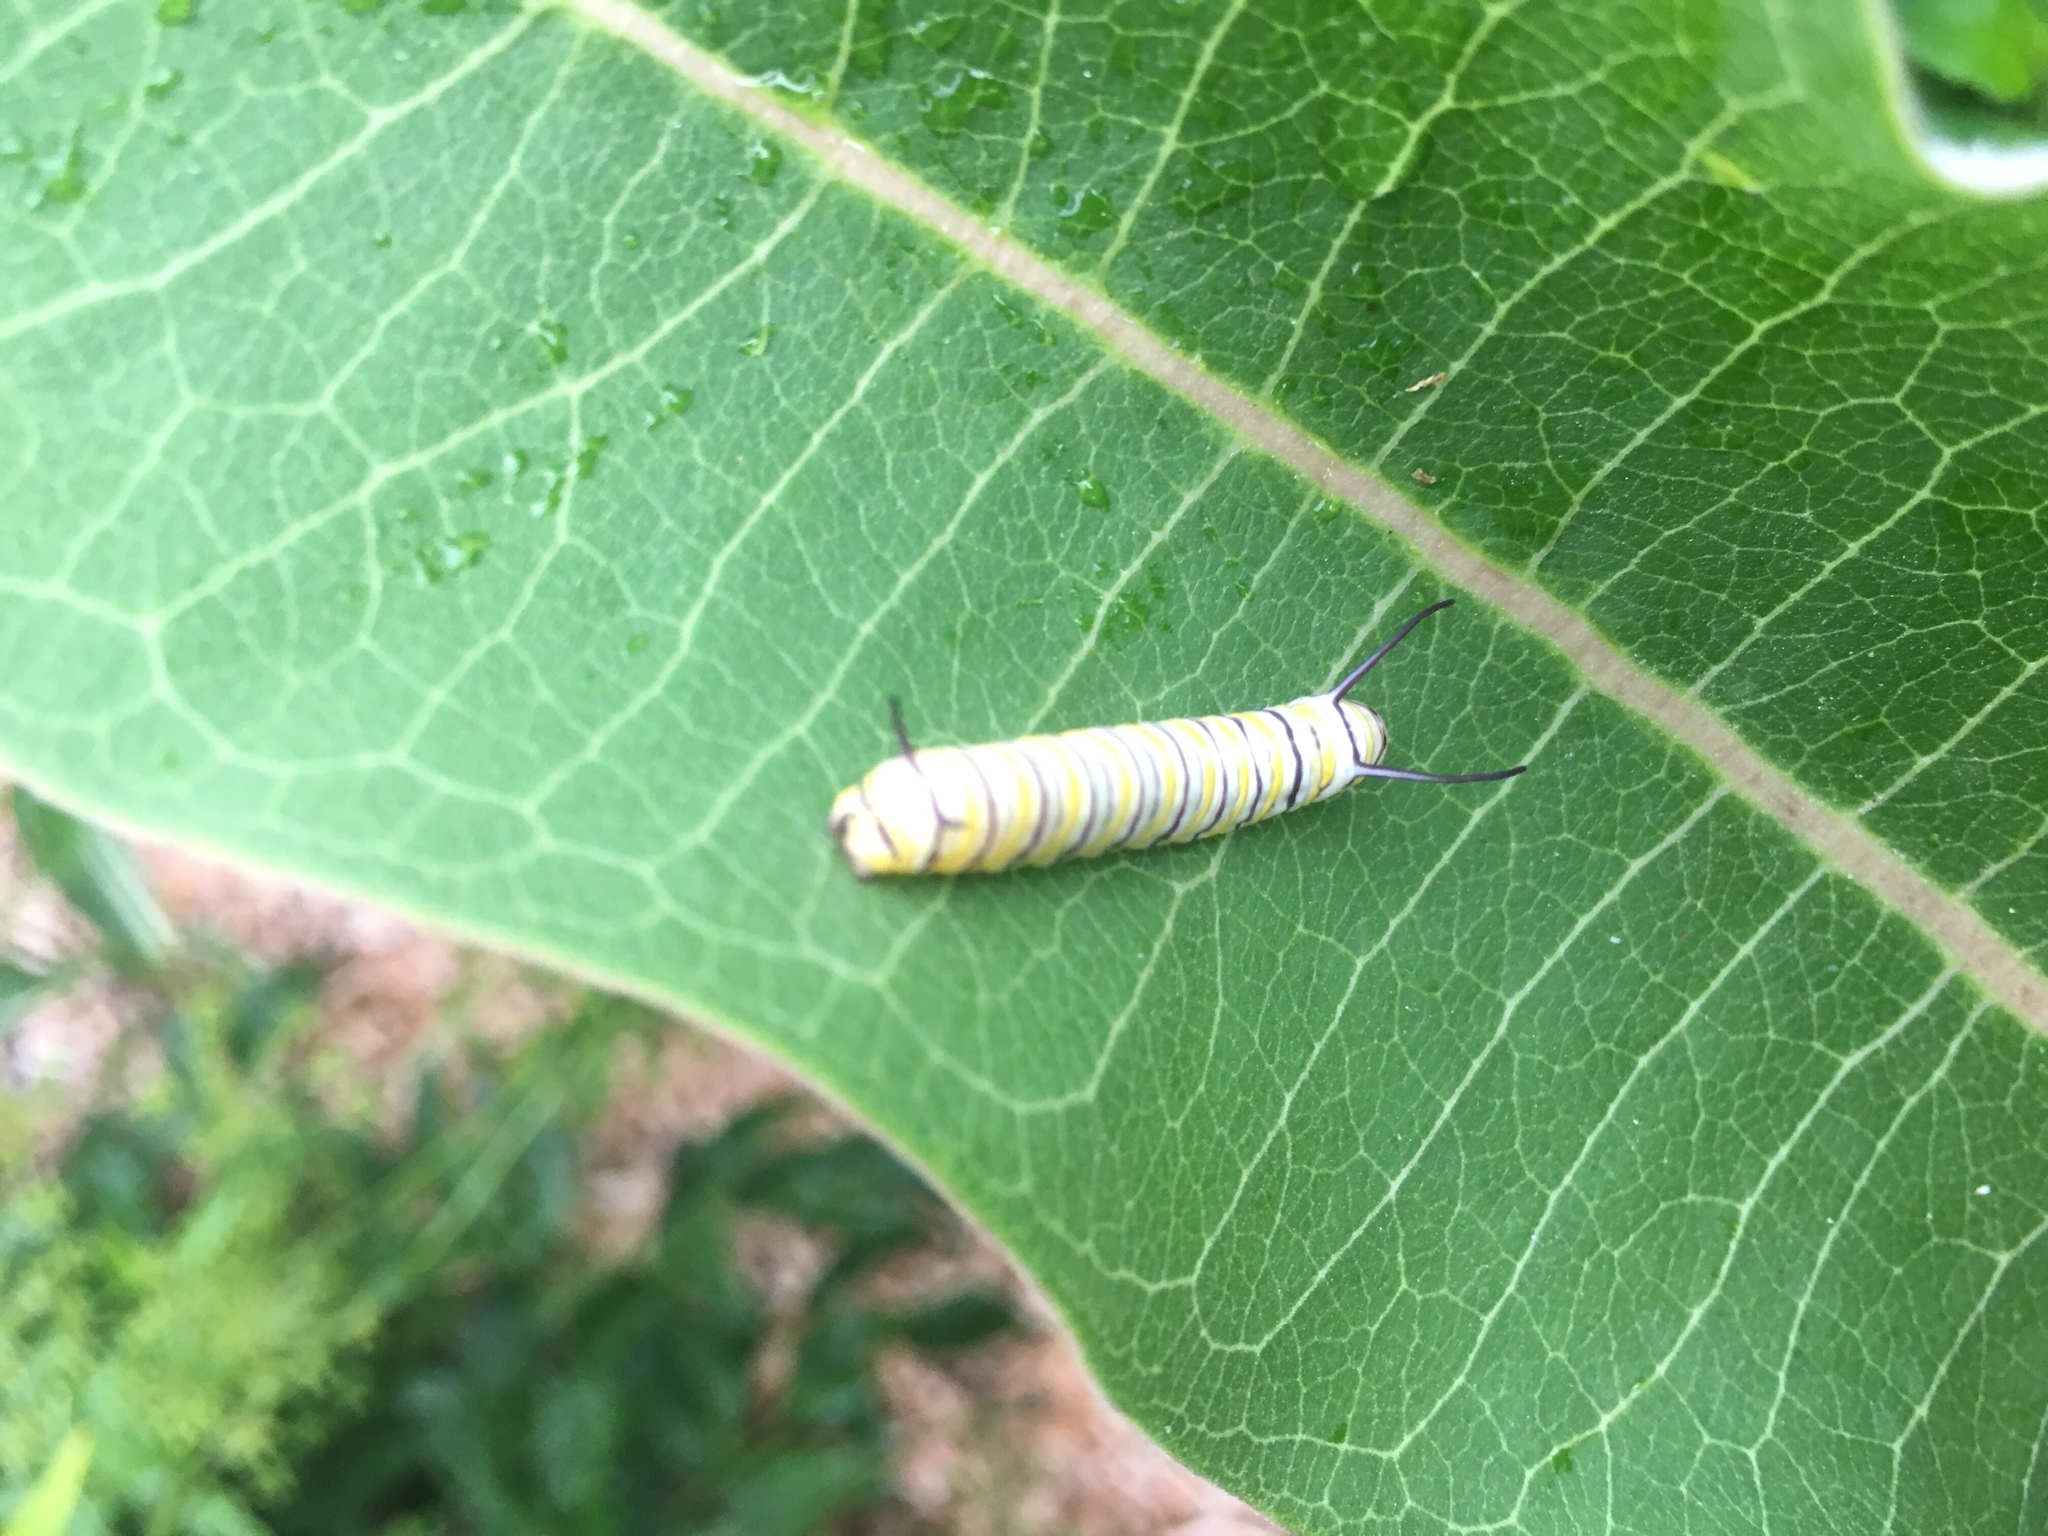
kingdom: Animalia
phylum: Arthropoda
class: Insecta
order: Lepidoptera
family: Nymphalidae
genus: Danaus
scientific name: Danaus plexippus
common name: Monarch
